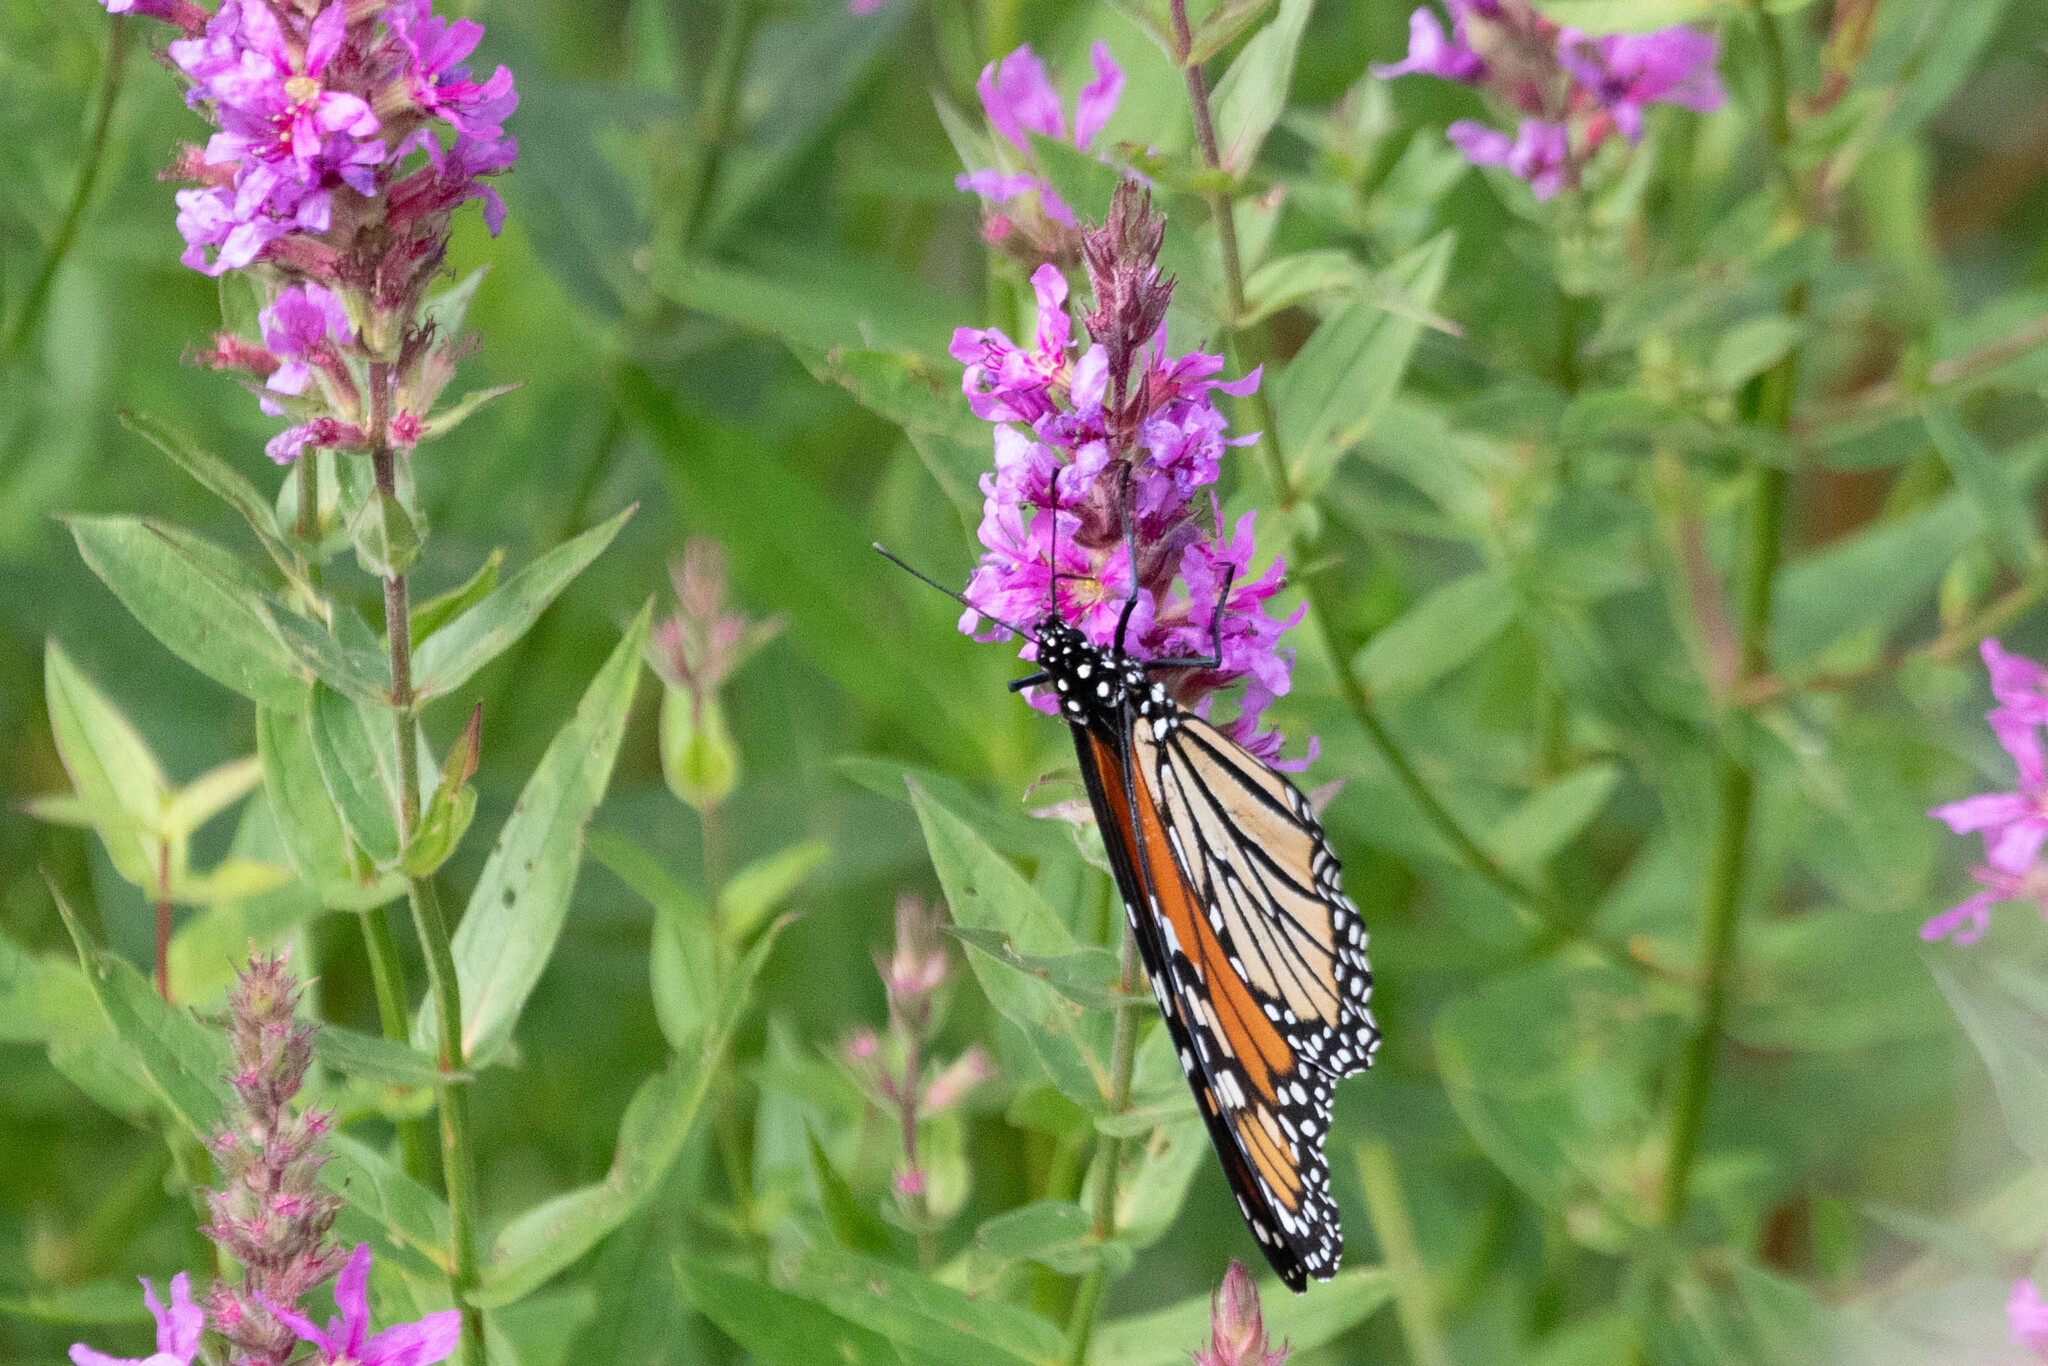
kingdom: Animalia
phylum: Arthropoda
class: Insecta
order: Lepidoptera
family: Nymphalidae
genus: Danaus
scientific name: Danaus plexippus
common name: Monarch
